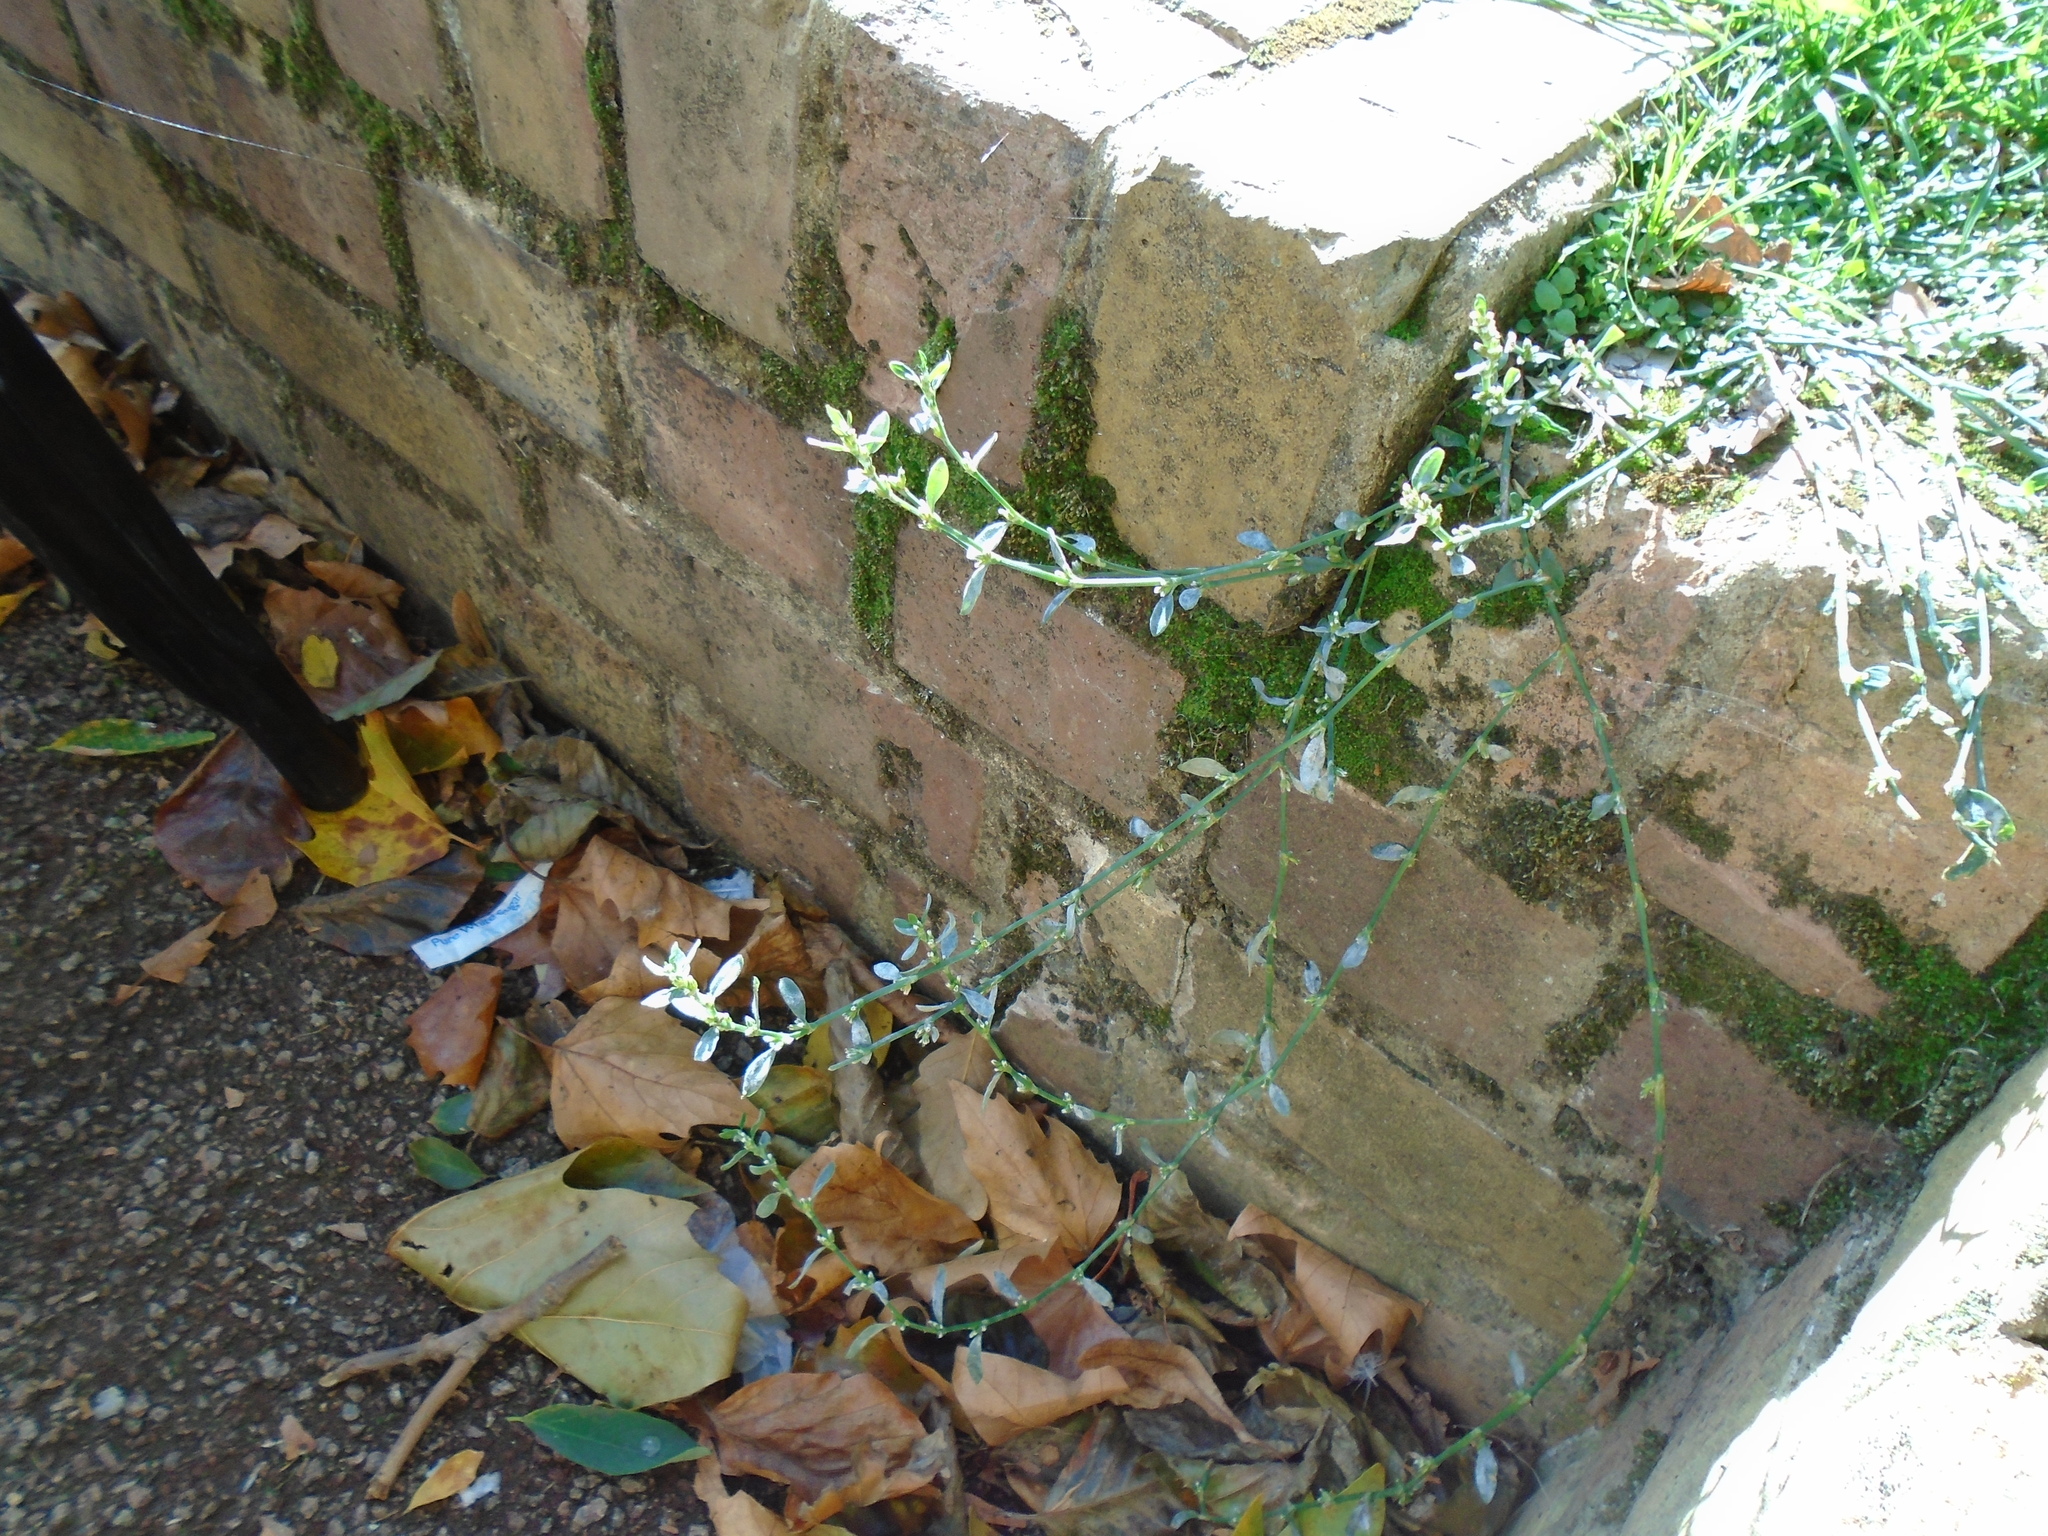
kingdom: Plantae
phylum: Tracheophyta
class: Magnoliopsida
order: Caryophyllales
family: Polygonaceae
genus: Polygonum
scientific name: Polygonum arenastrum
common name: Equal-leaved knotgrass
